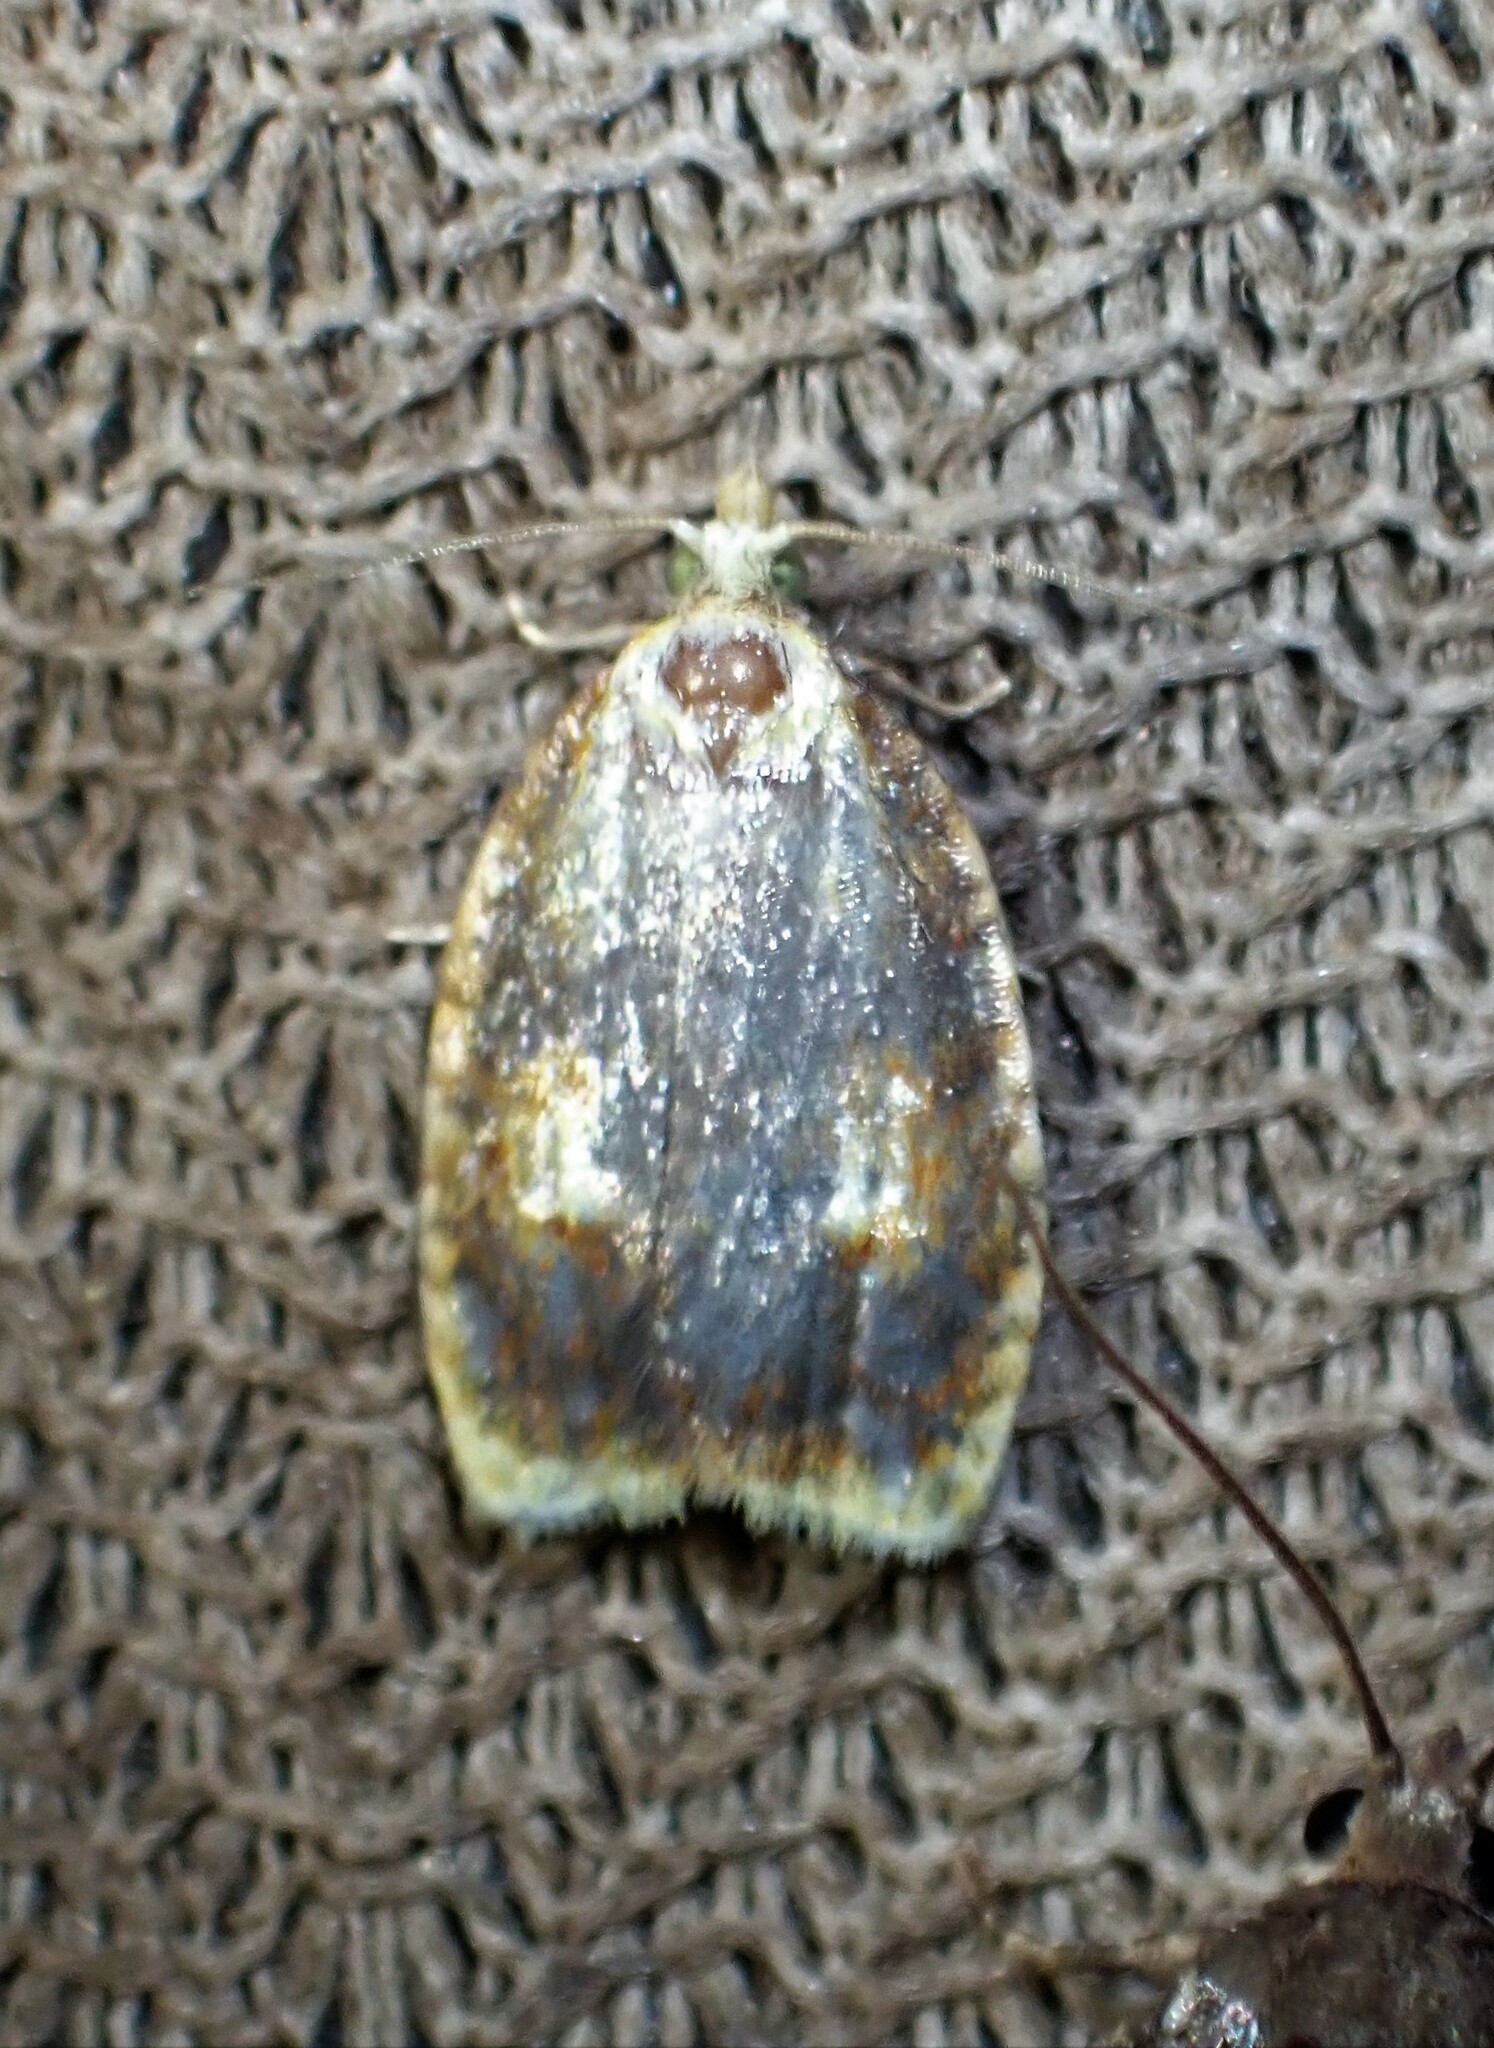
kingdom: Animalia
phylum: Arthropoda
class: Insecta
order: Lepidoptera
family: Tortricidae
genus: Acleris
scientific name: Acleris curvalana
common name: Blueberry leaftier moth
